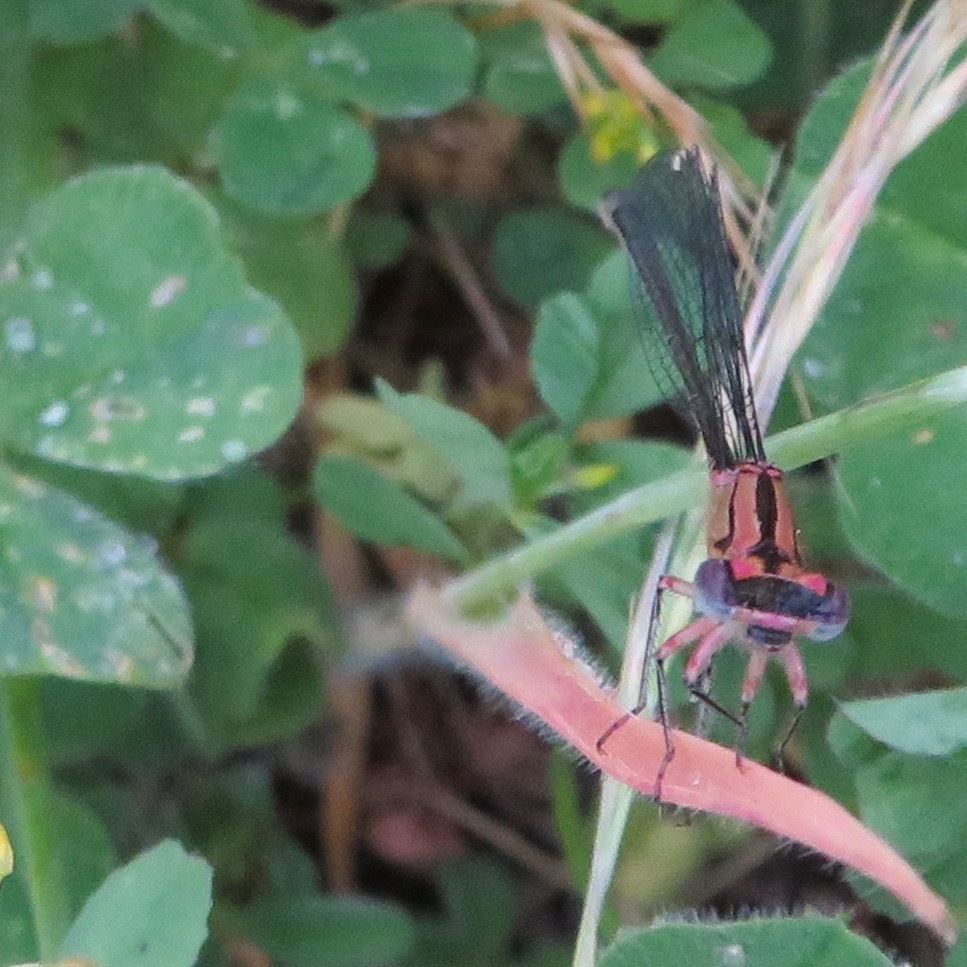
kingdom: Animalia
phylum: Arthropoda
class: Insecta
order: Odonata
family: Coenagrionidae
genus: Ischnura
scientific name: Ischnura cervula
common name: Pacific forktail
